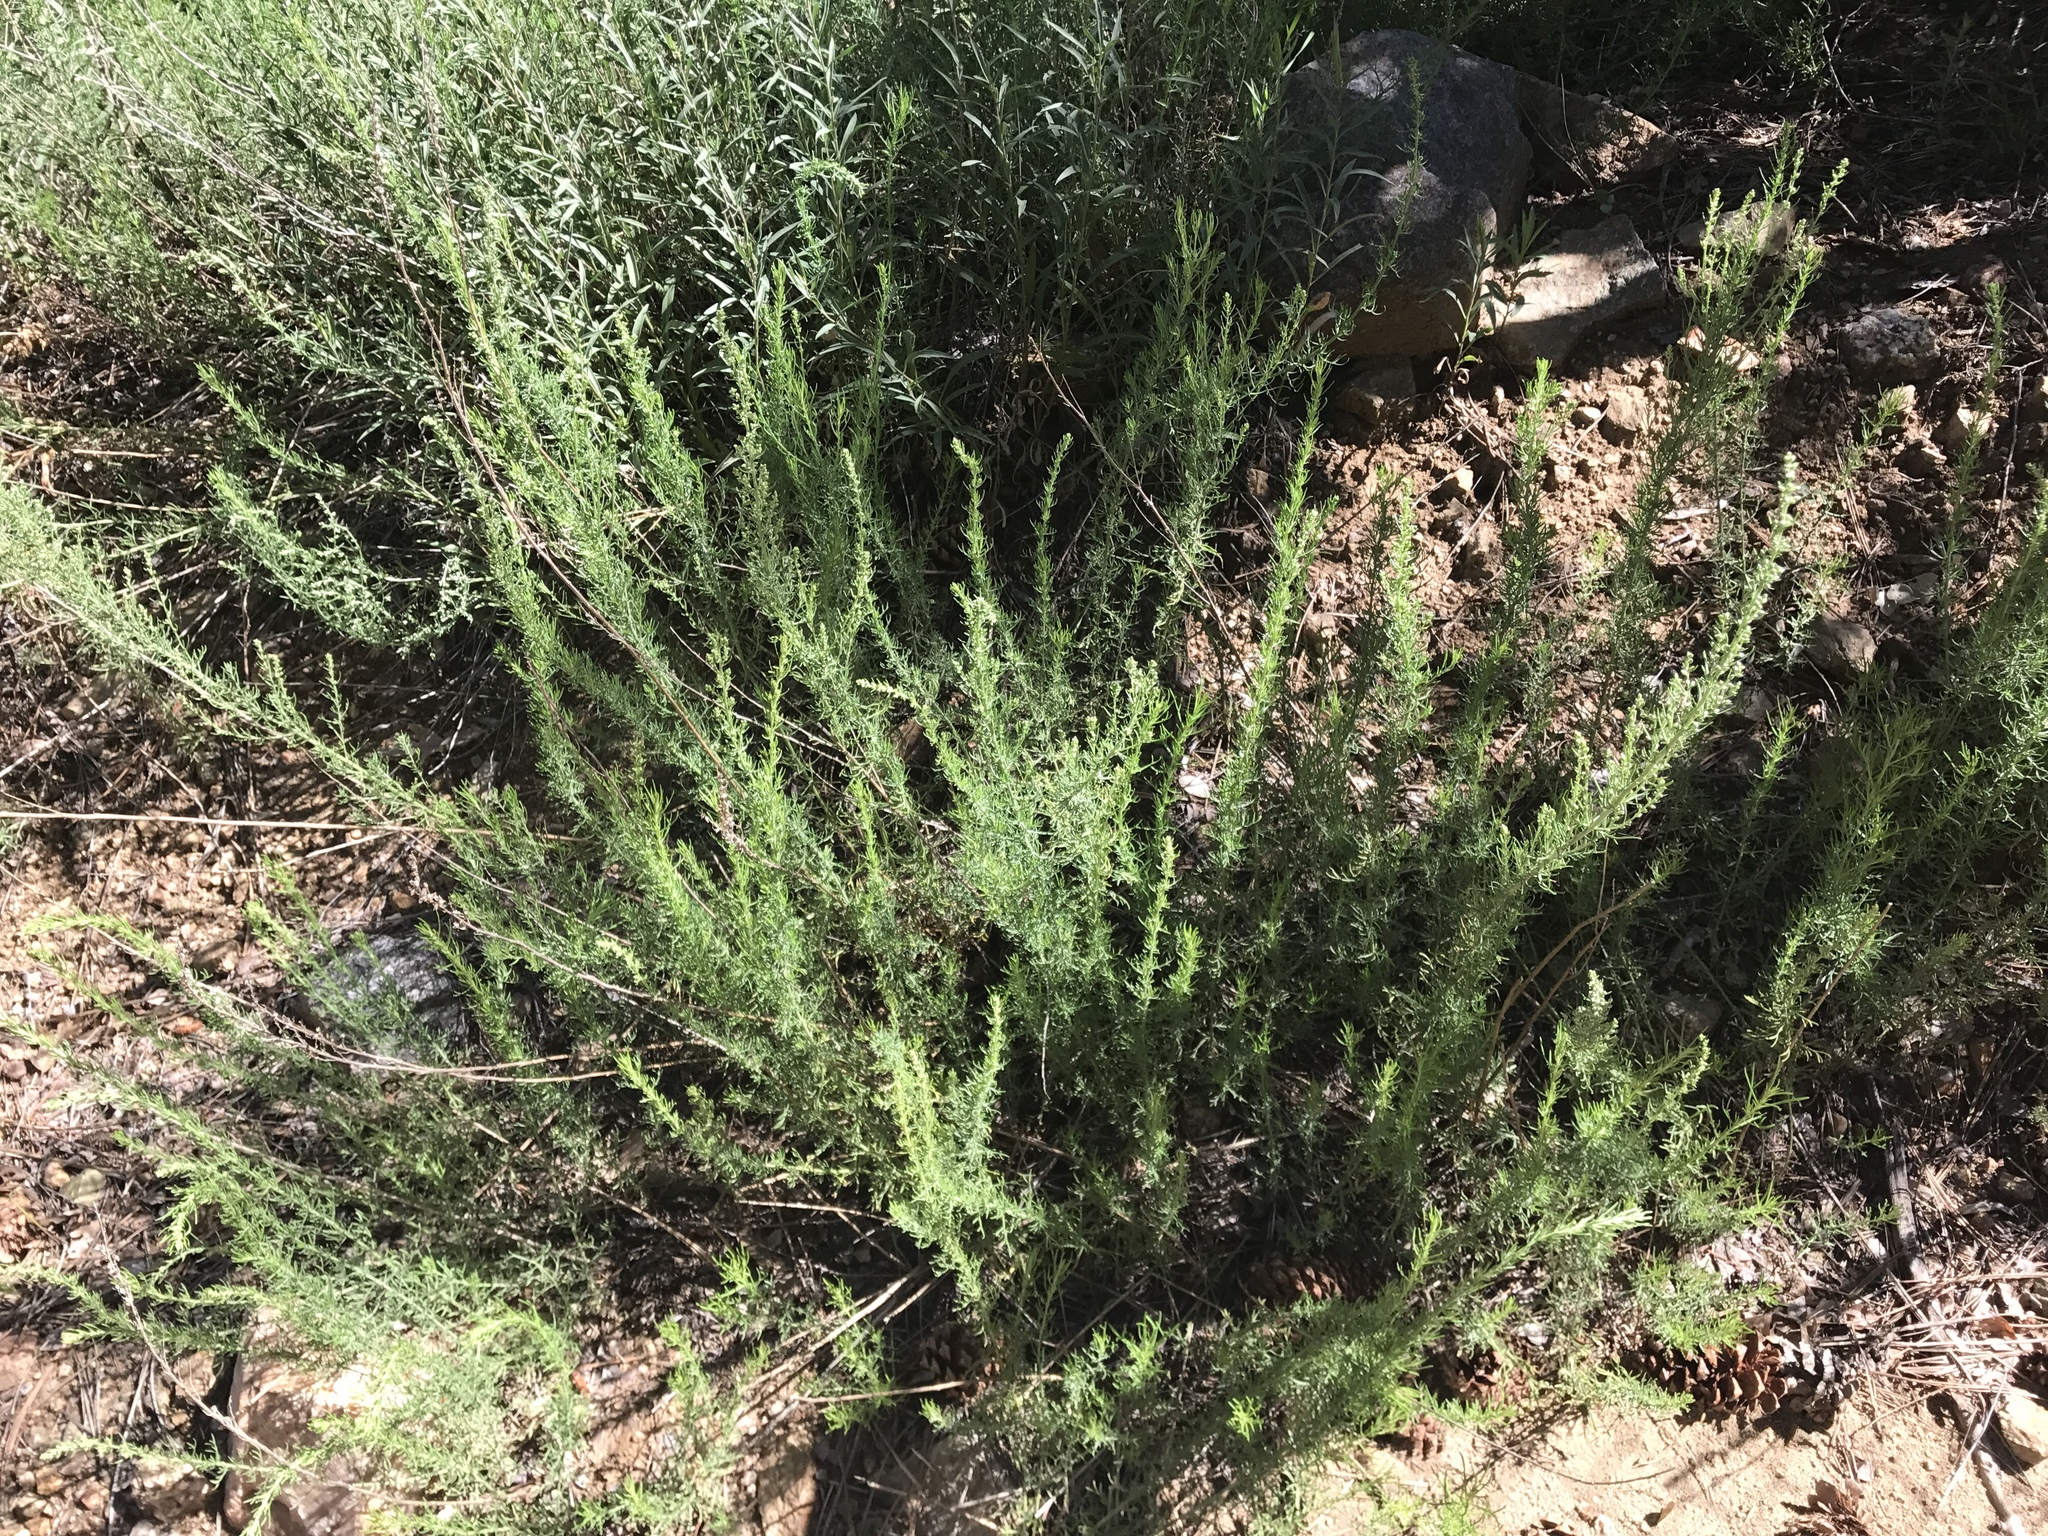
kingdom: Plantae
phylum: Tracheophyta
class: Magnoliopsida
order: Asterales
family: Asteraceae
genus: Artemisia
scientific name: Artemisia carruthii
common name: Carruth wormwood
